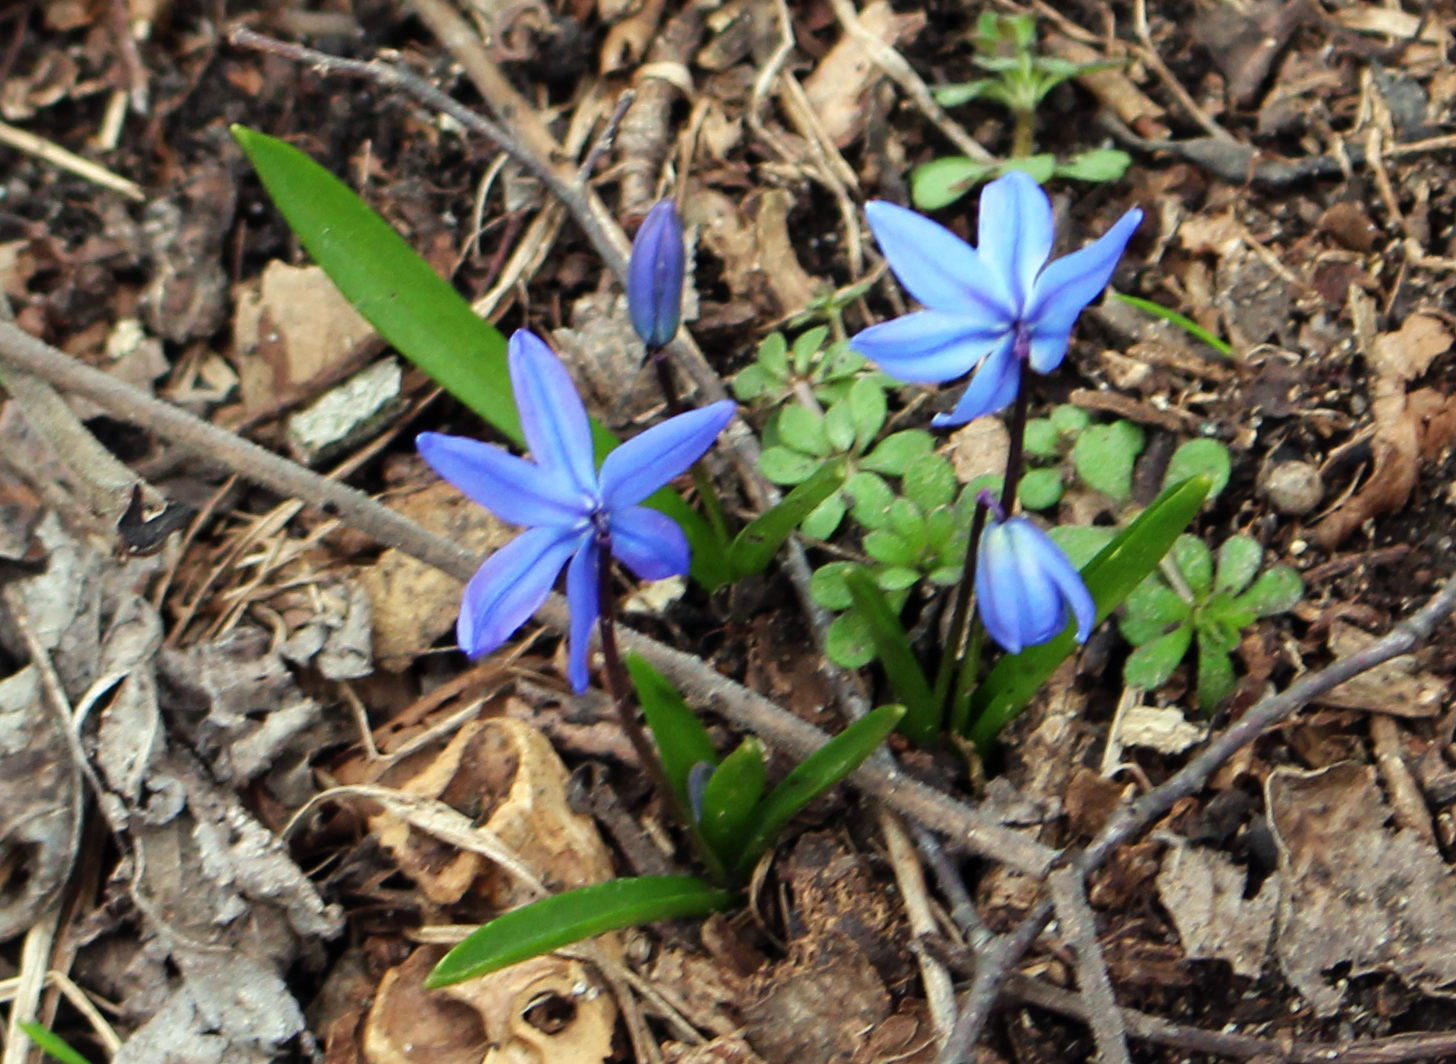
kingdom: Plantae
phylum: Tracheophyta
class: Liliopsida
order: Asparagales
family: Asparagaceae
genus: Scilla
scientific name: Scilla siberica
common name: Siberian squill
